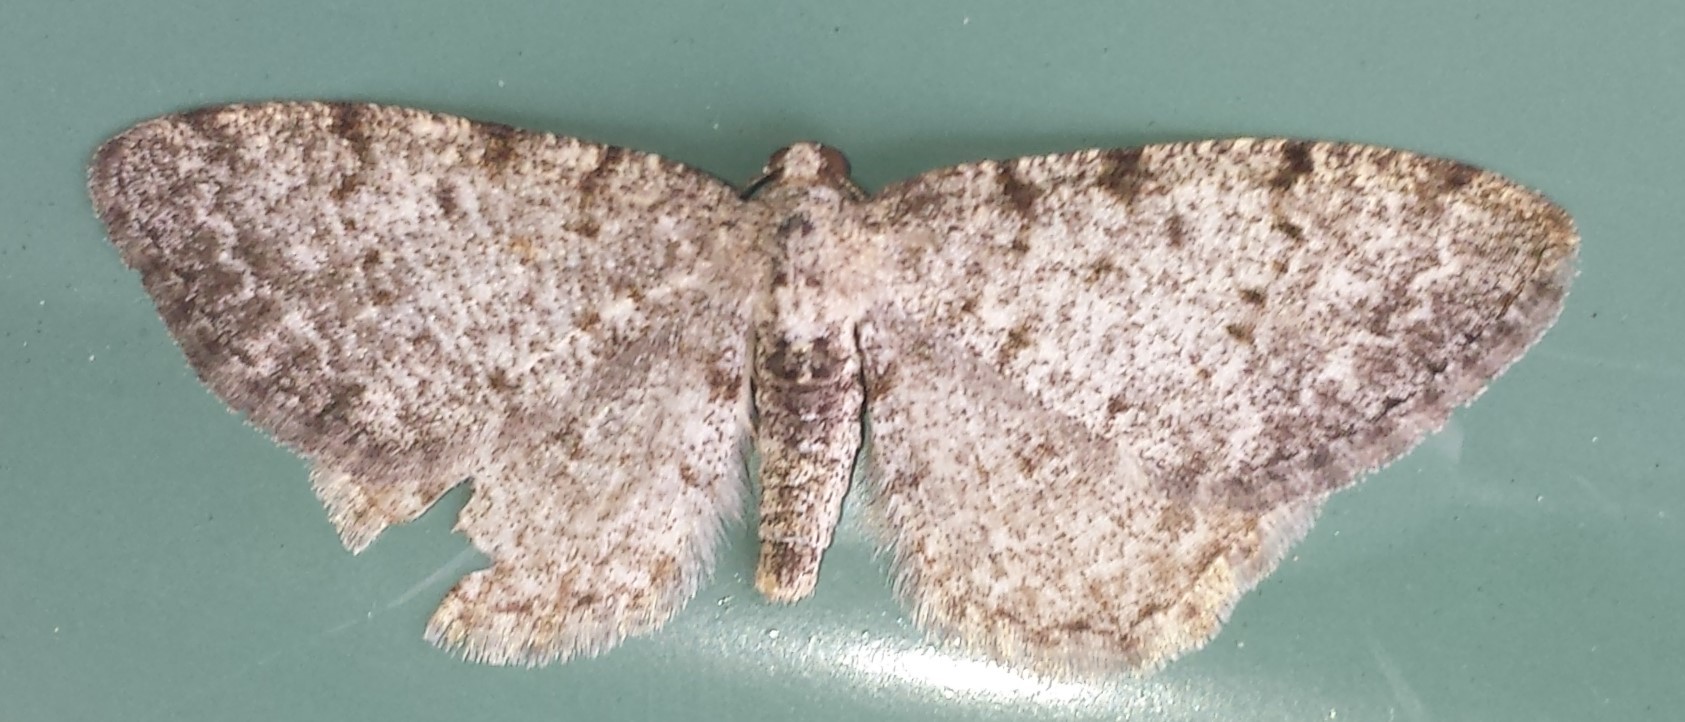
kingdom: Animalia
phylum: Arthropoda
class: Insecta
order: Lepidoptera
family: Geometridae
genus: Aethalura
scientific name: Aethalura intertexta
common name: Four-barred gray
